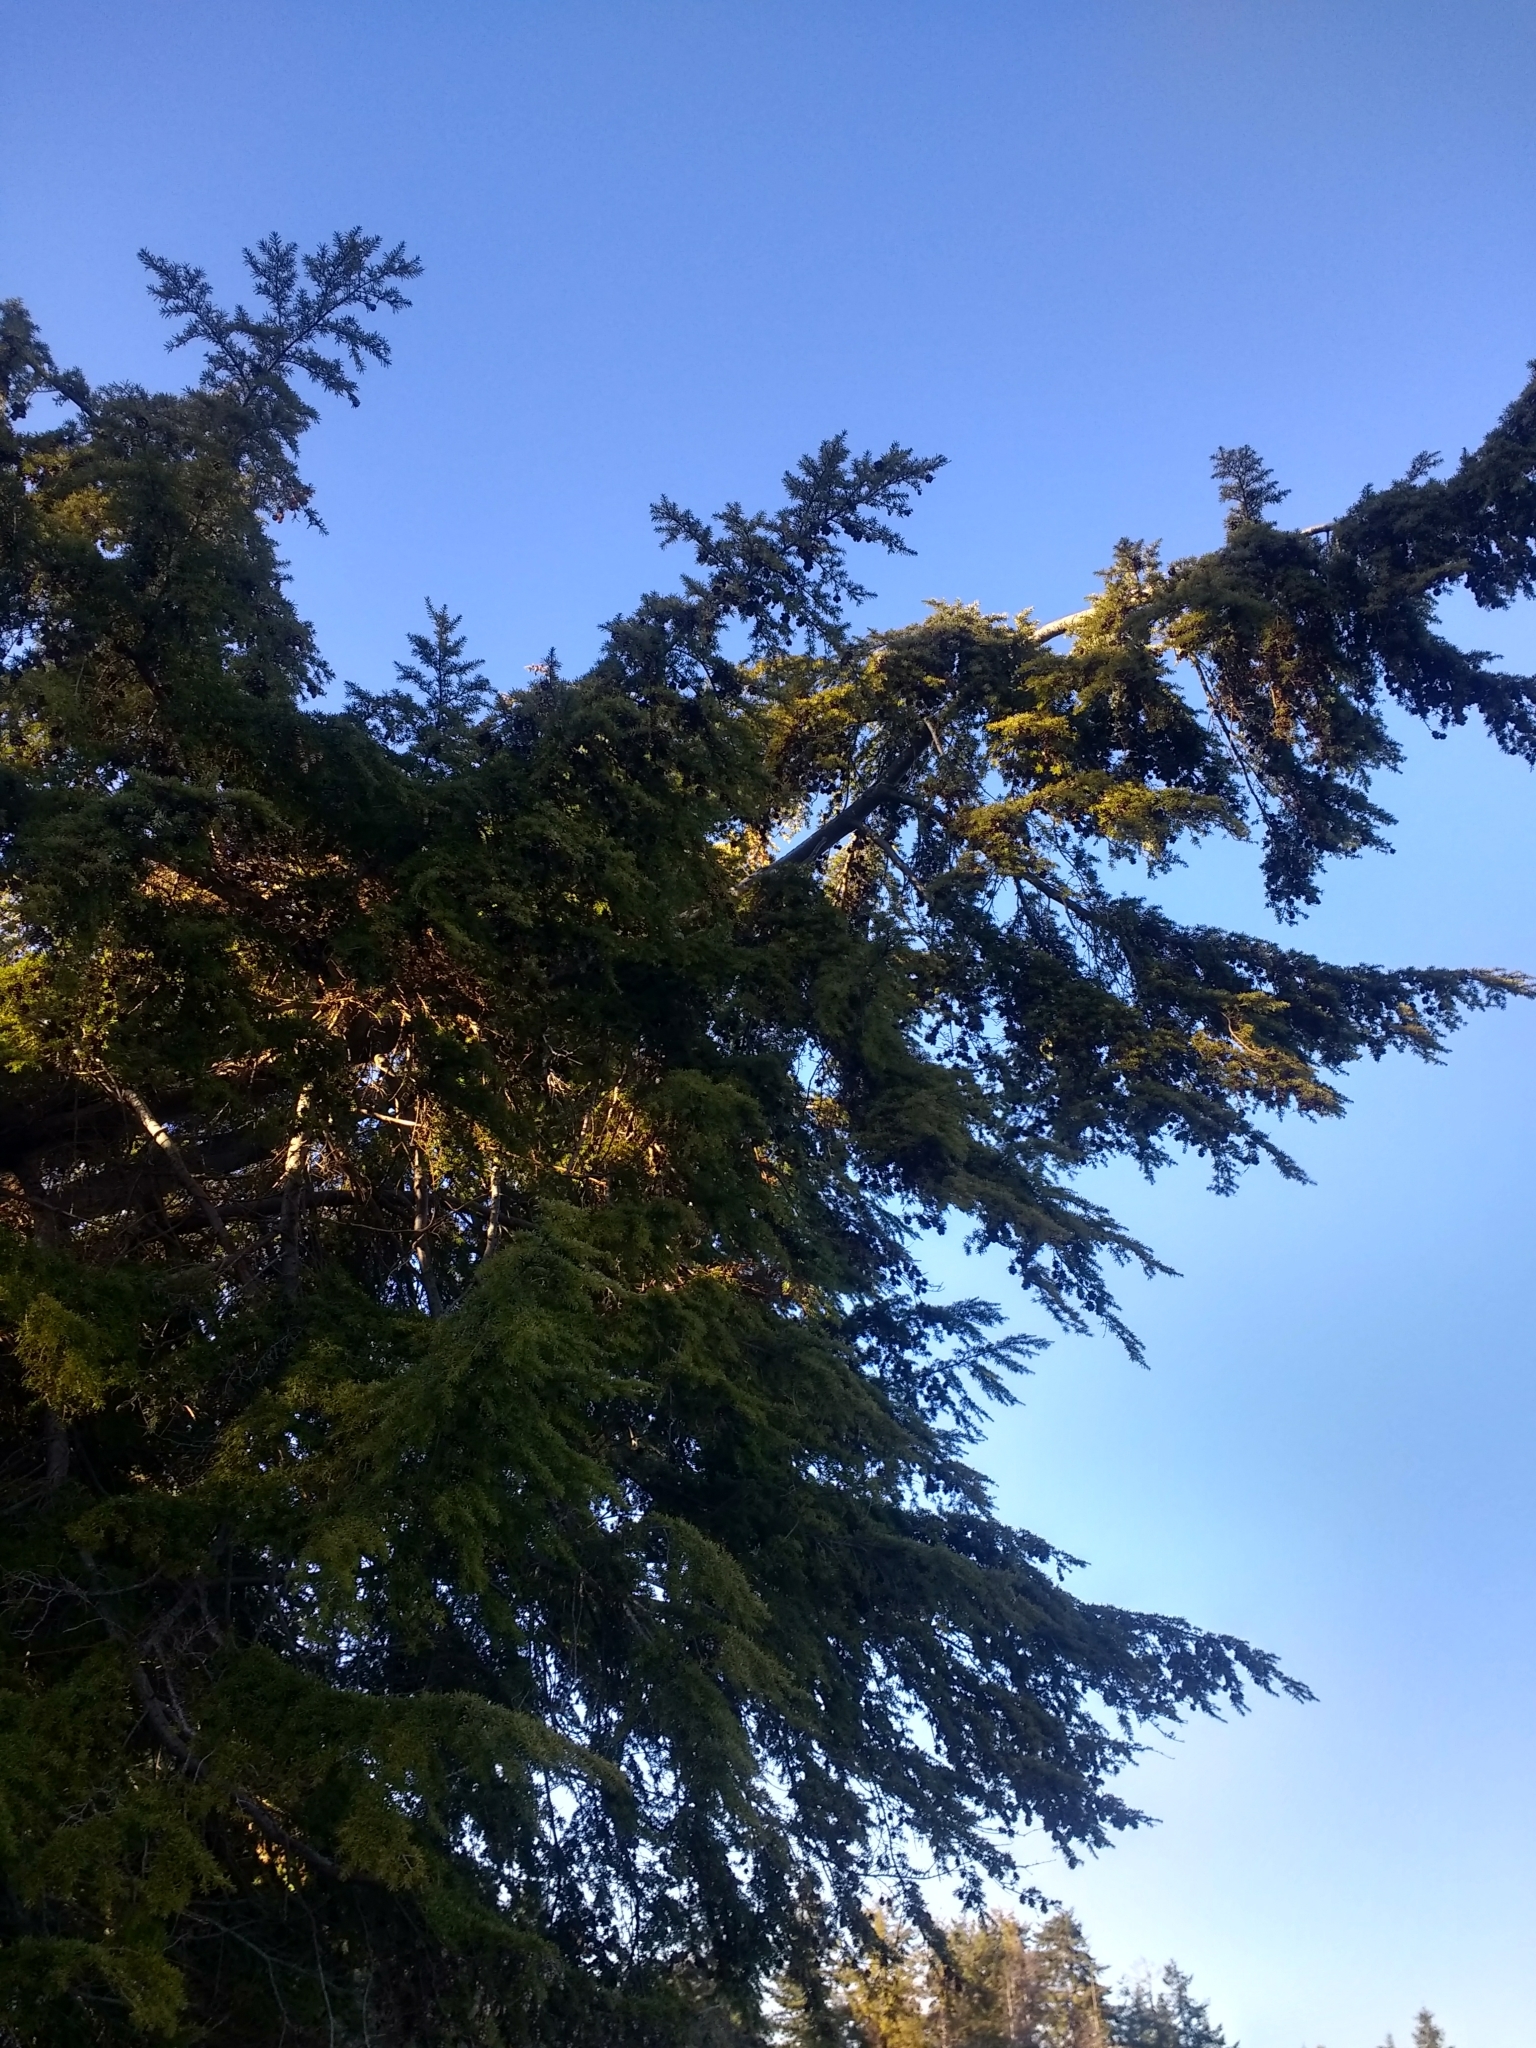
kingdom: Plantae
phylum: Tracheophyta
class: Pinopsida
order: Pinales
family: Pinaceae
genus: Tsuga
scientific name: Tsuga heterophylla
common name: Western hemlock
